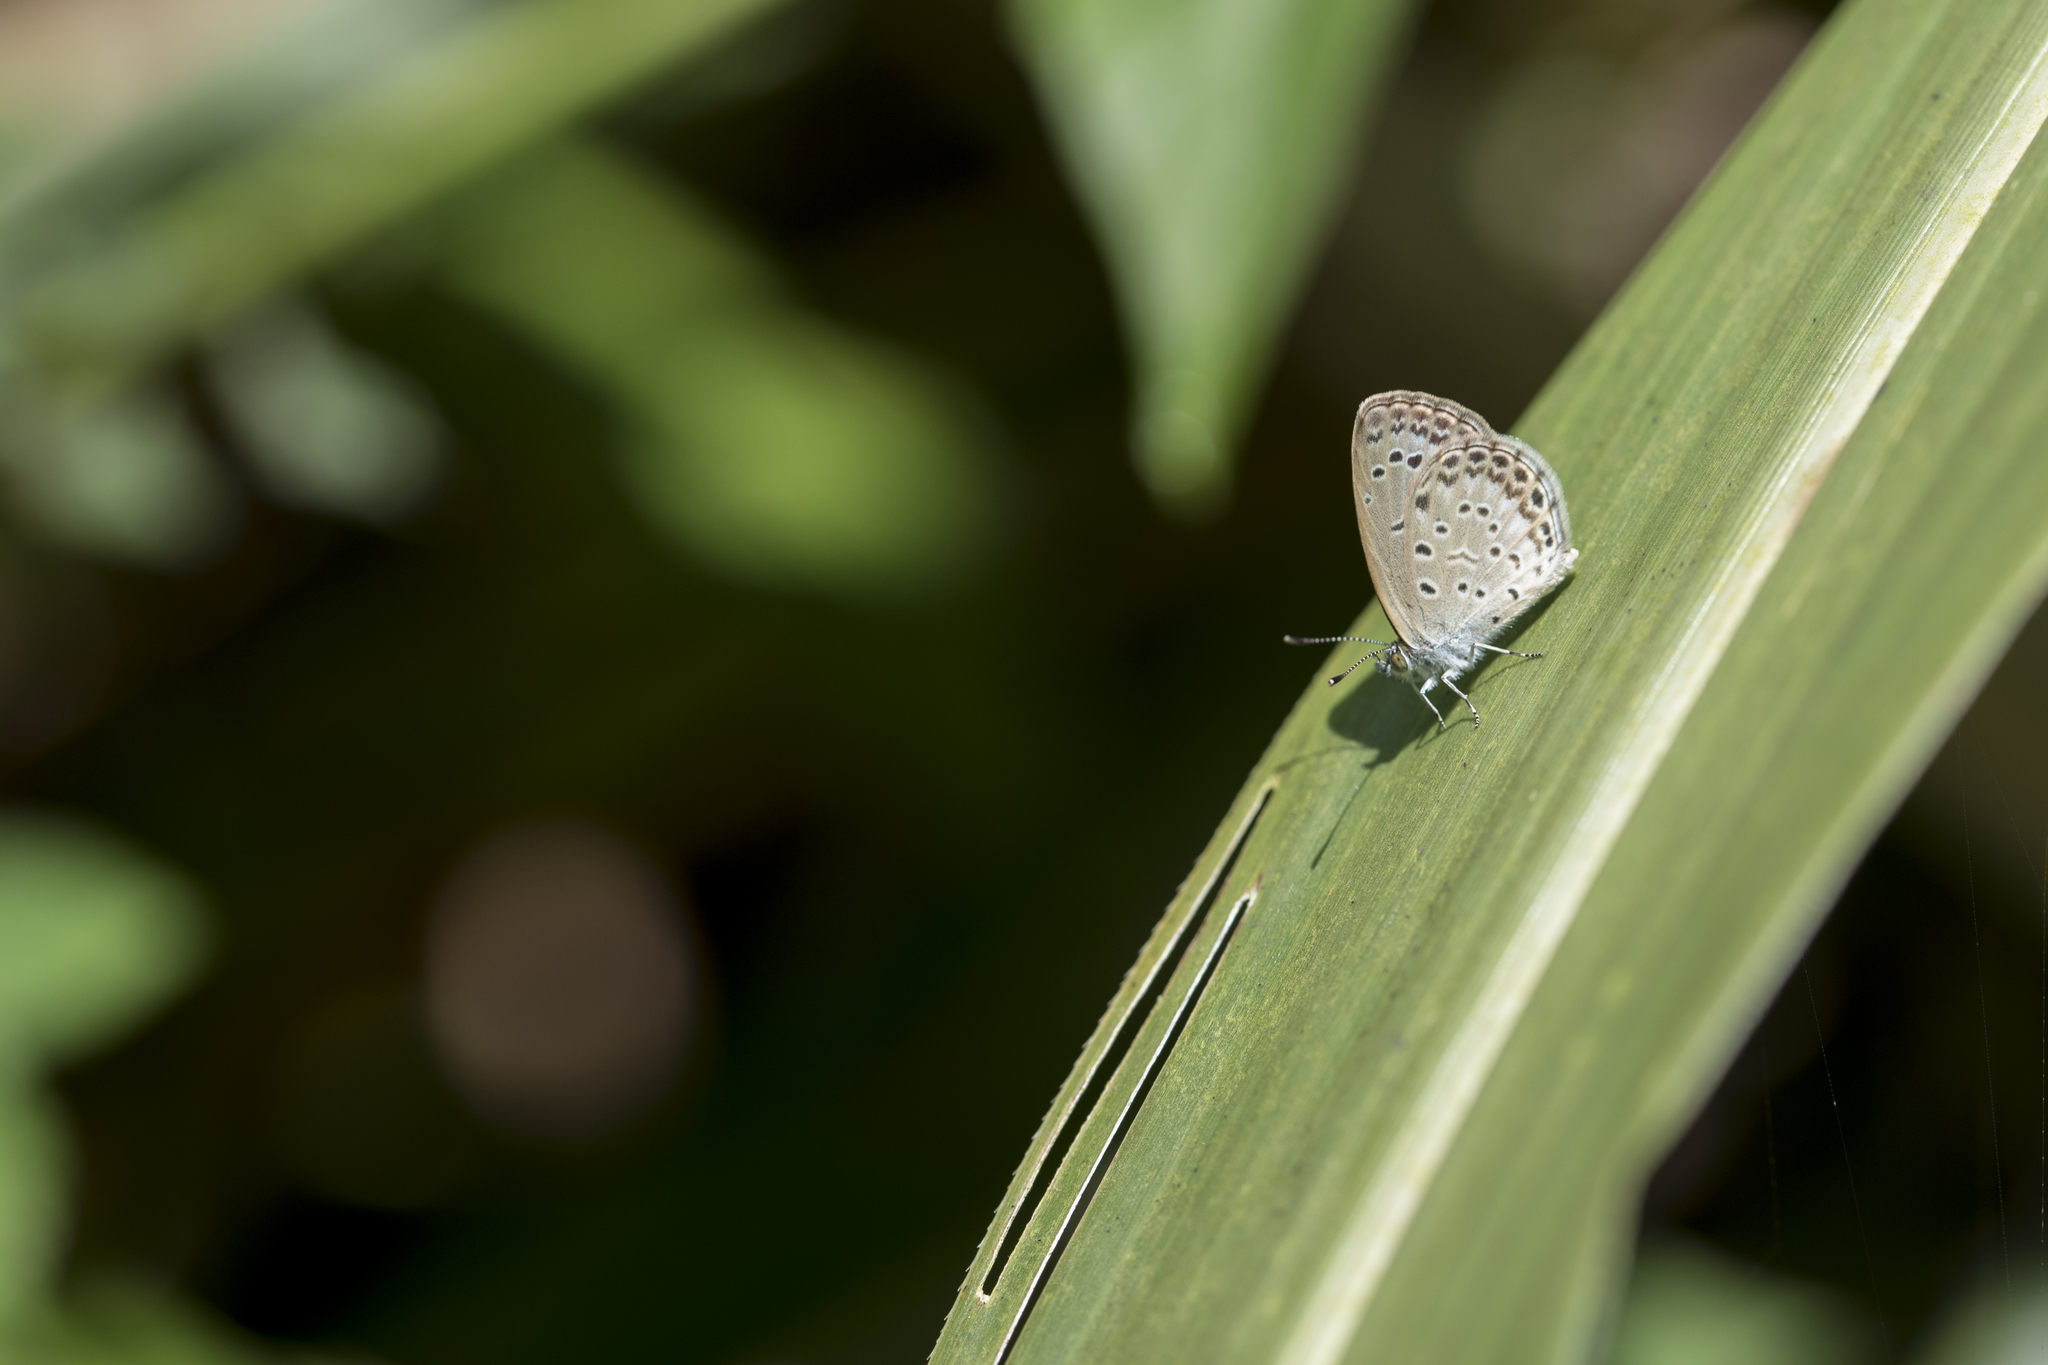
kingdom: Animalia
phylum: Arthropoda
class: Insecta
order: Lepidoptera
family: Lycaenidae
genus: Pseudozizeeria
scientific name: Pseudozizeeria maha
